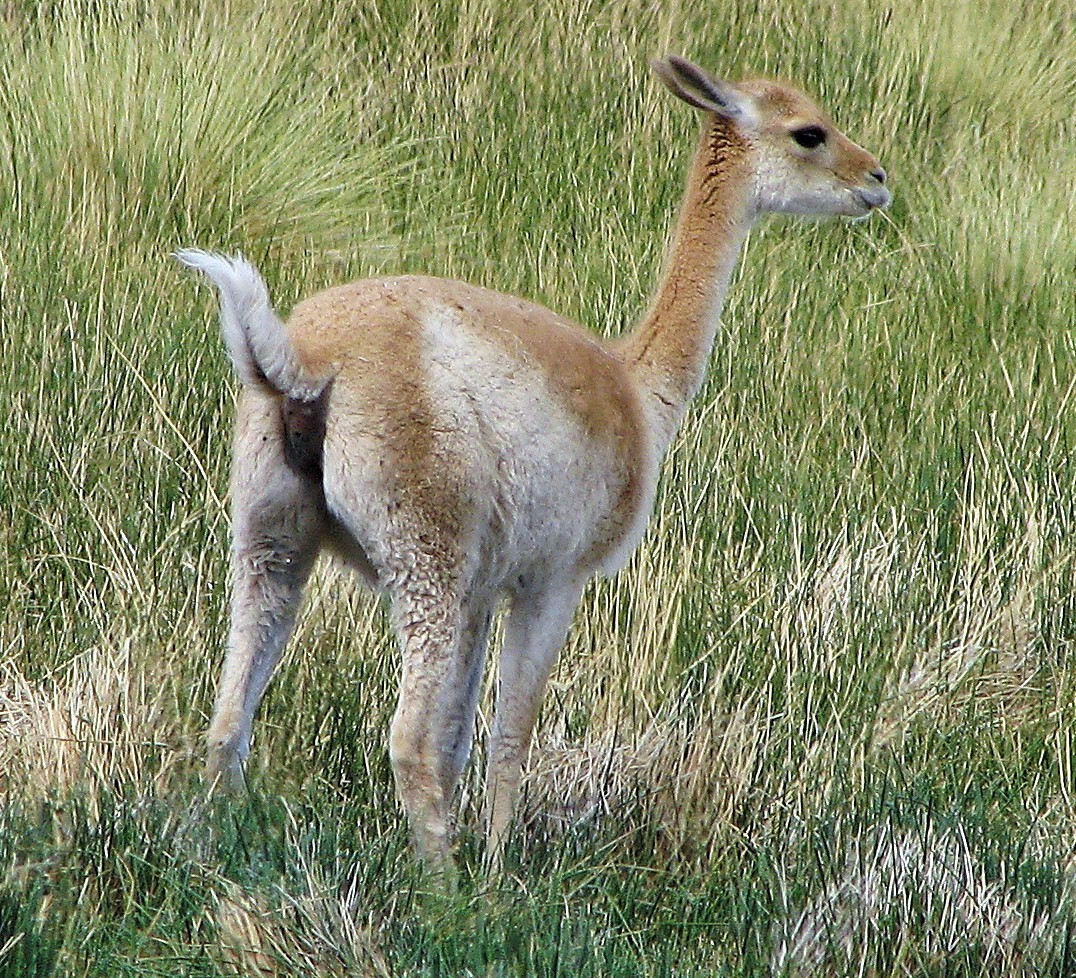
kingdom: Animalia
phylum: Chordata
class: Mammalia
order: Artiodactyla
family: Camelidae
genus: Vicugna
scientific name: Vicugna vicugna
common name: Vicugna
